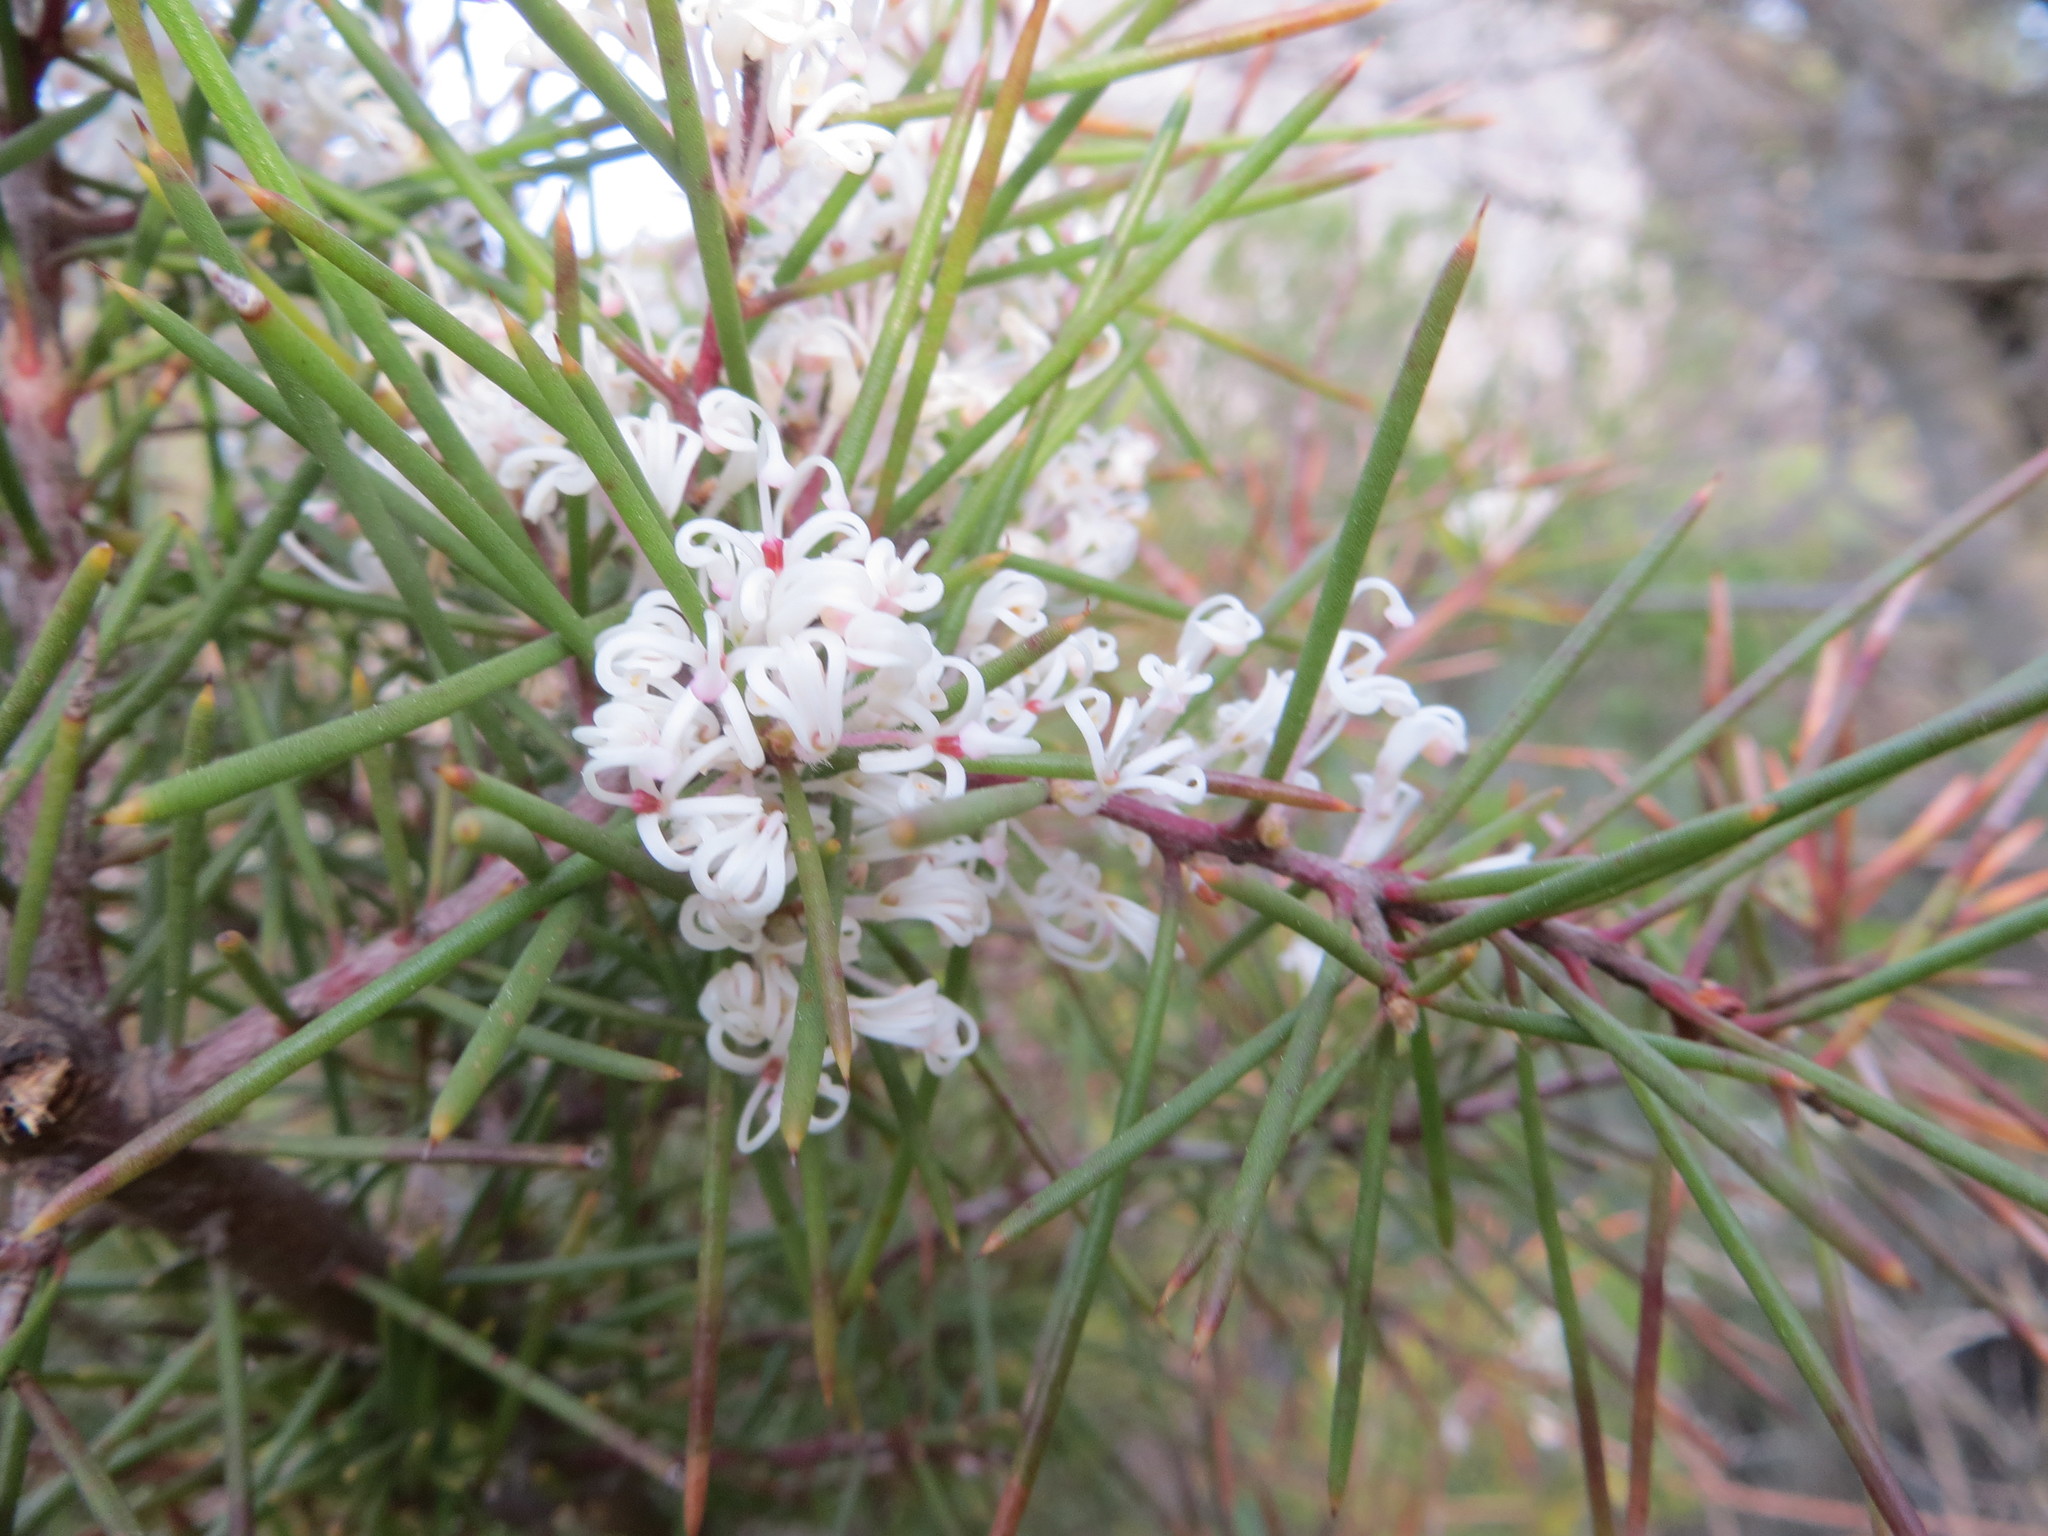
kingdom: Plantae
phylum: Tracheophyta
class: Magnoliopsida
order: Proteales
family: Proteaceae
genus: Hakea
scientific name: Hakea gibbosa
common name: Rock hakea
